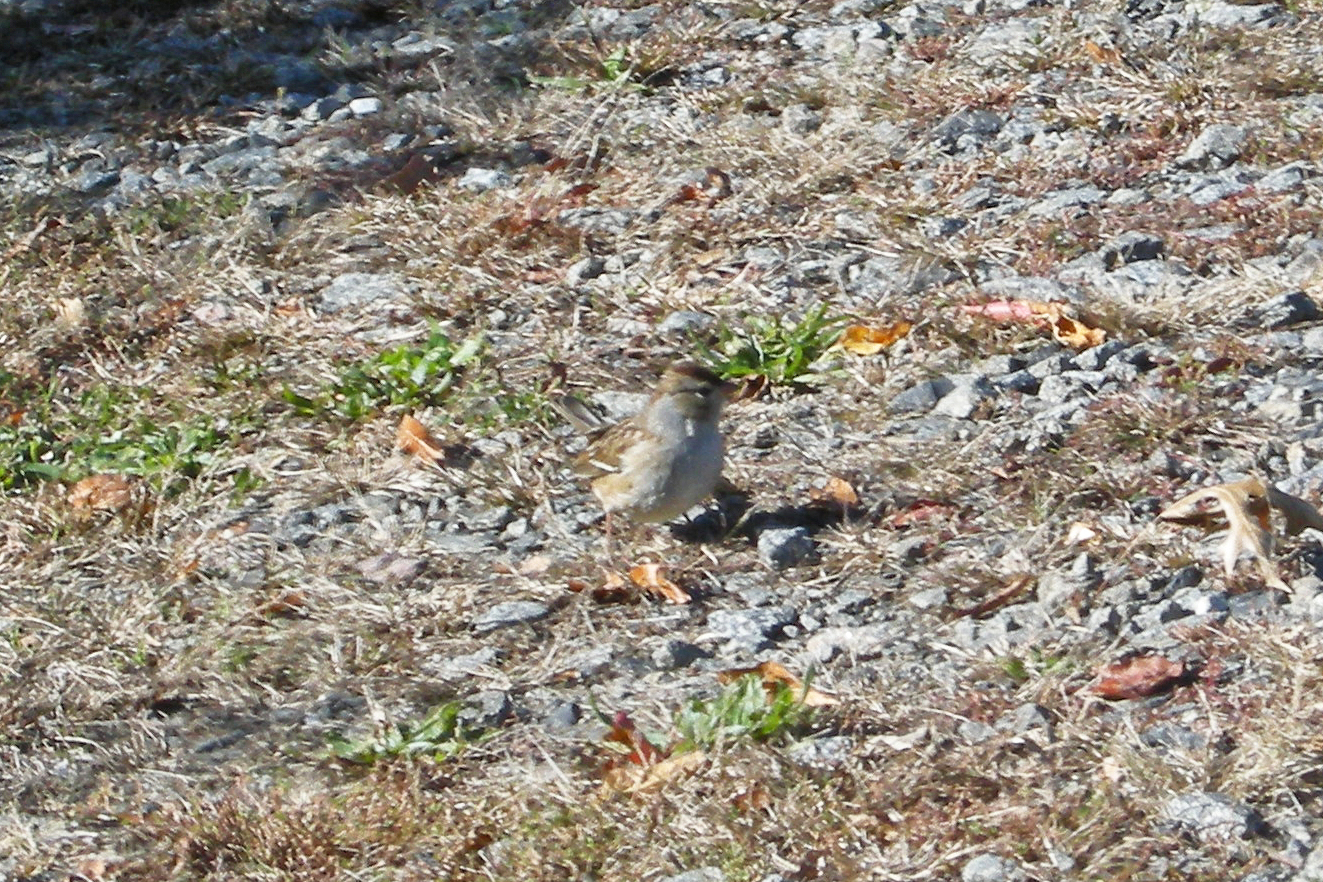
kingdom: Animalia
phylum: Chordata
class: Aves
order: Passeriformes
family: Passerellidae
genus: Zonotrichia
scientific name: Zonotrichia leucophrys
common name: White-crowned sparrow
